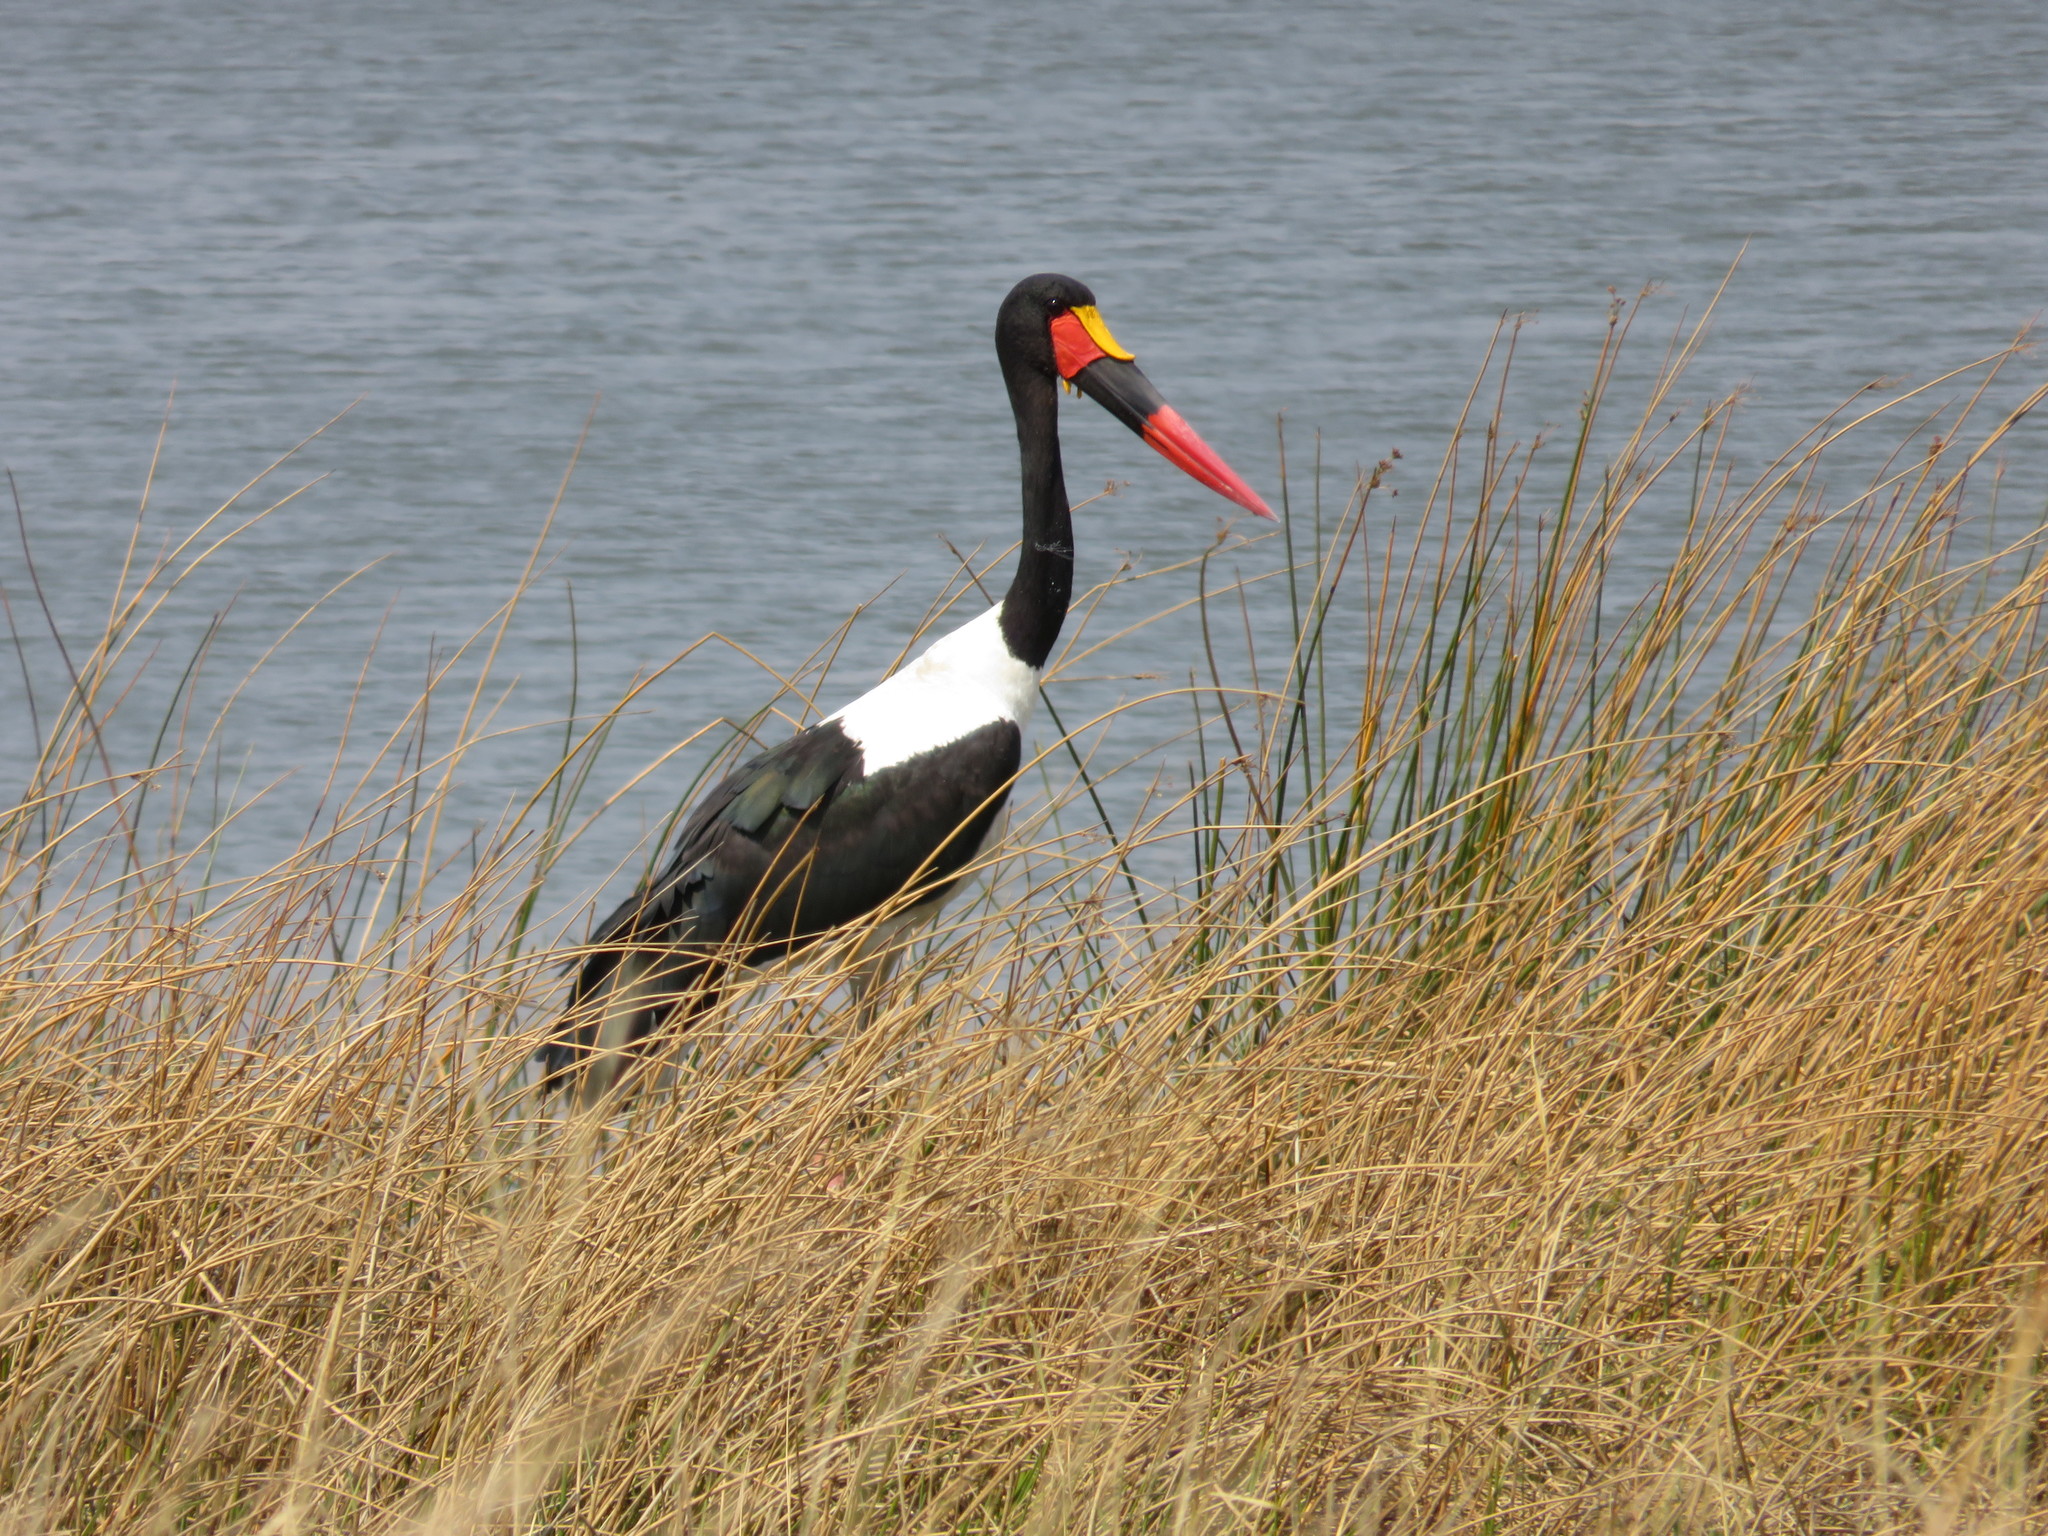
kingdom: Animalia
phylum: Chordata
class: Aves
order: Ciconiiformes
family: Ciconiidae
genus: Ephippiorhynchus
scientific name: Ephippiorhynchus senegalensis
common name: Saddle-billed stork
